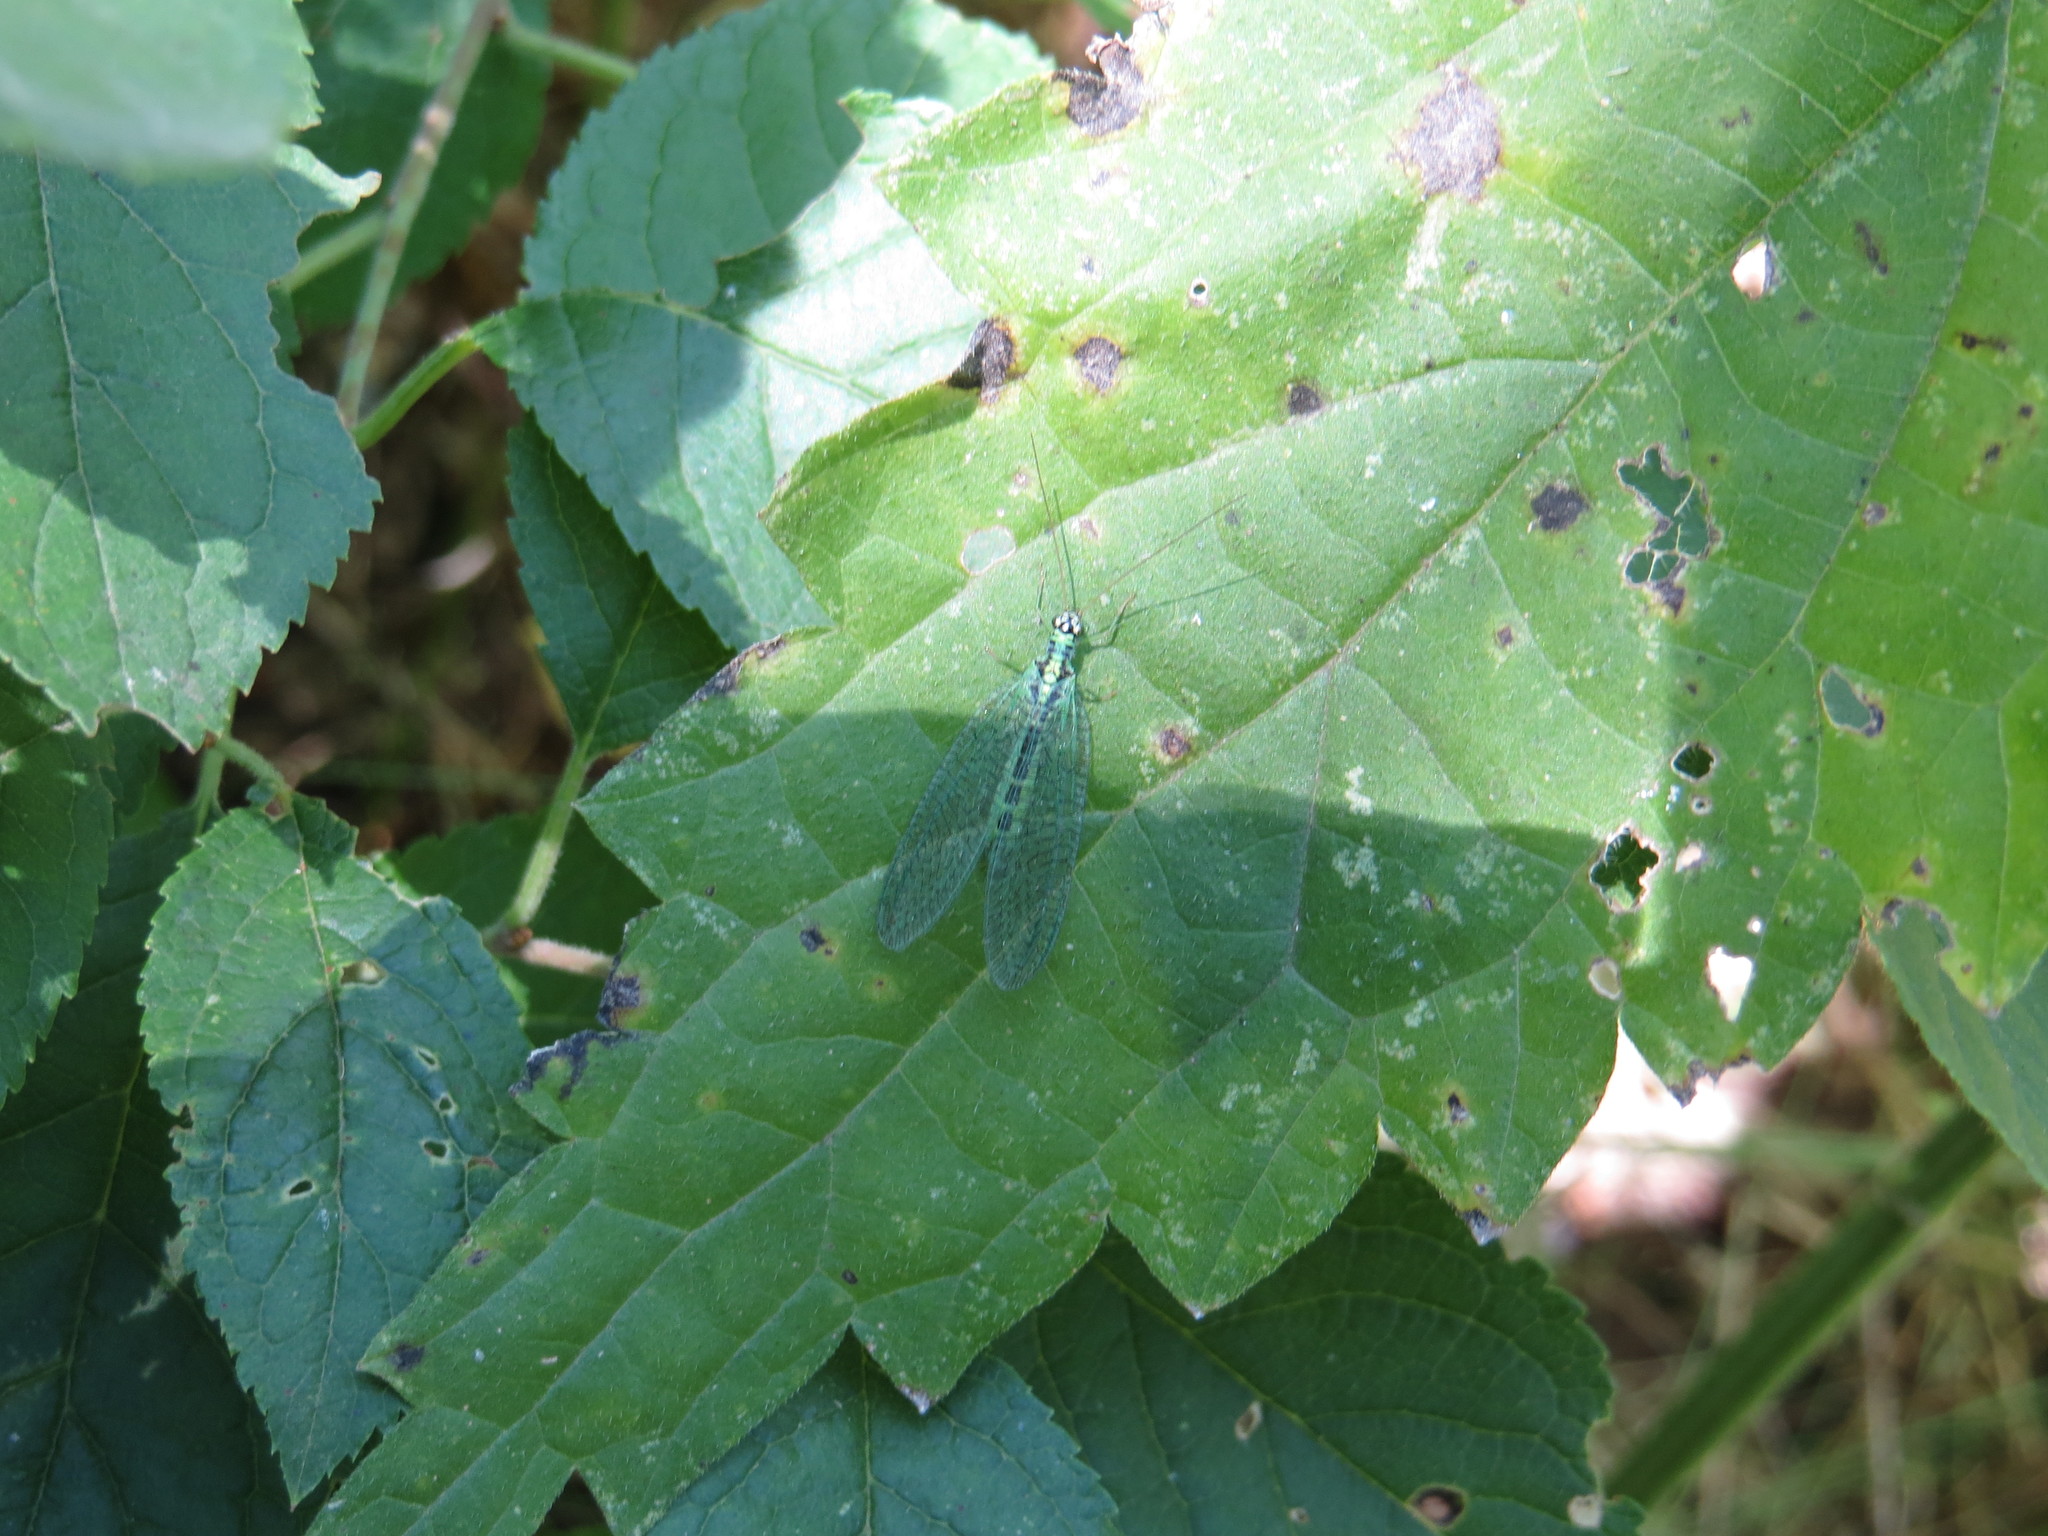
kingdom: Animalia
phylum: Arthropoda
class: Insecta
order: Neuroptera
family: Chrysopidae
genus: Chrysopa
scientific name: Chrysopa perla
